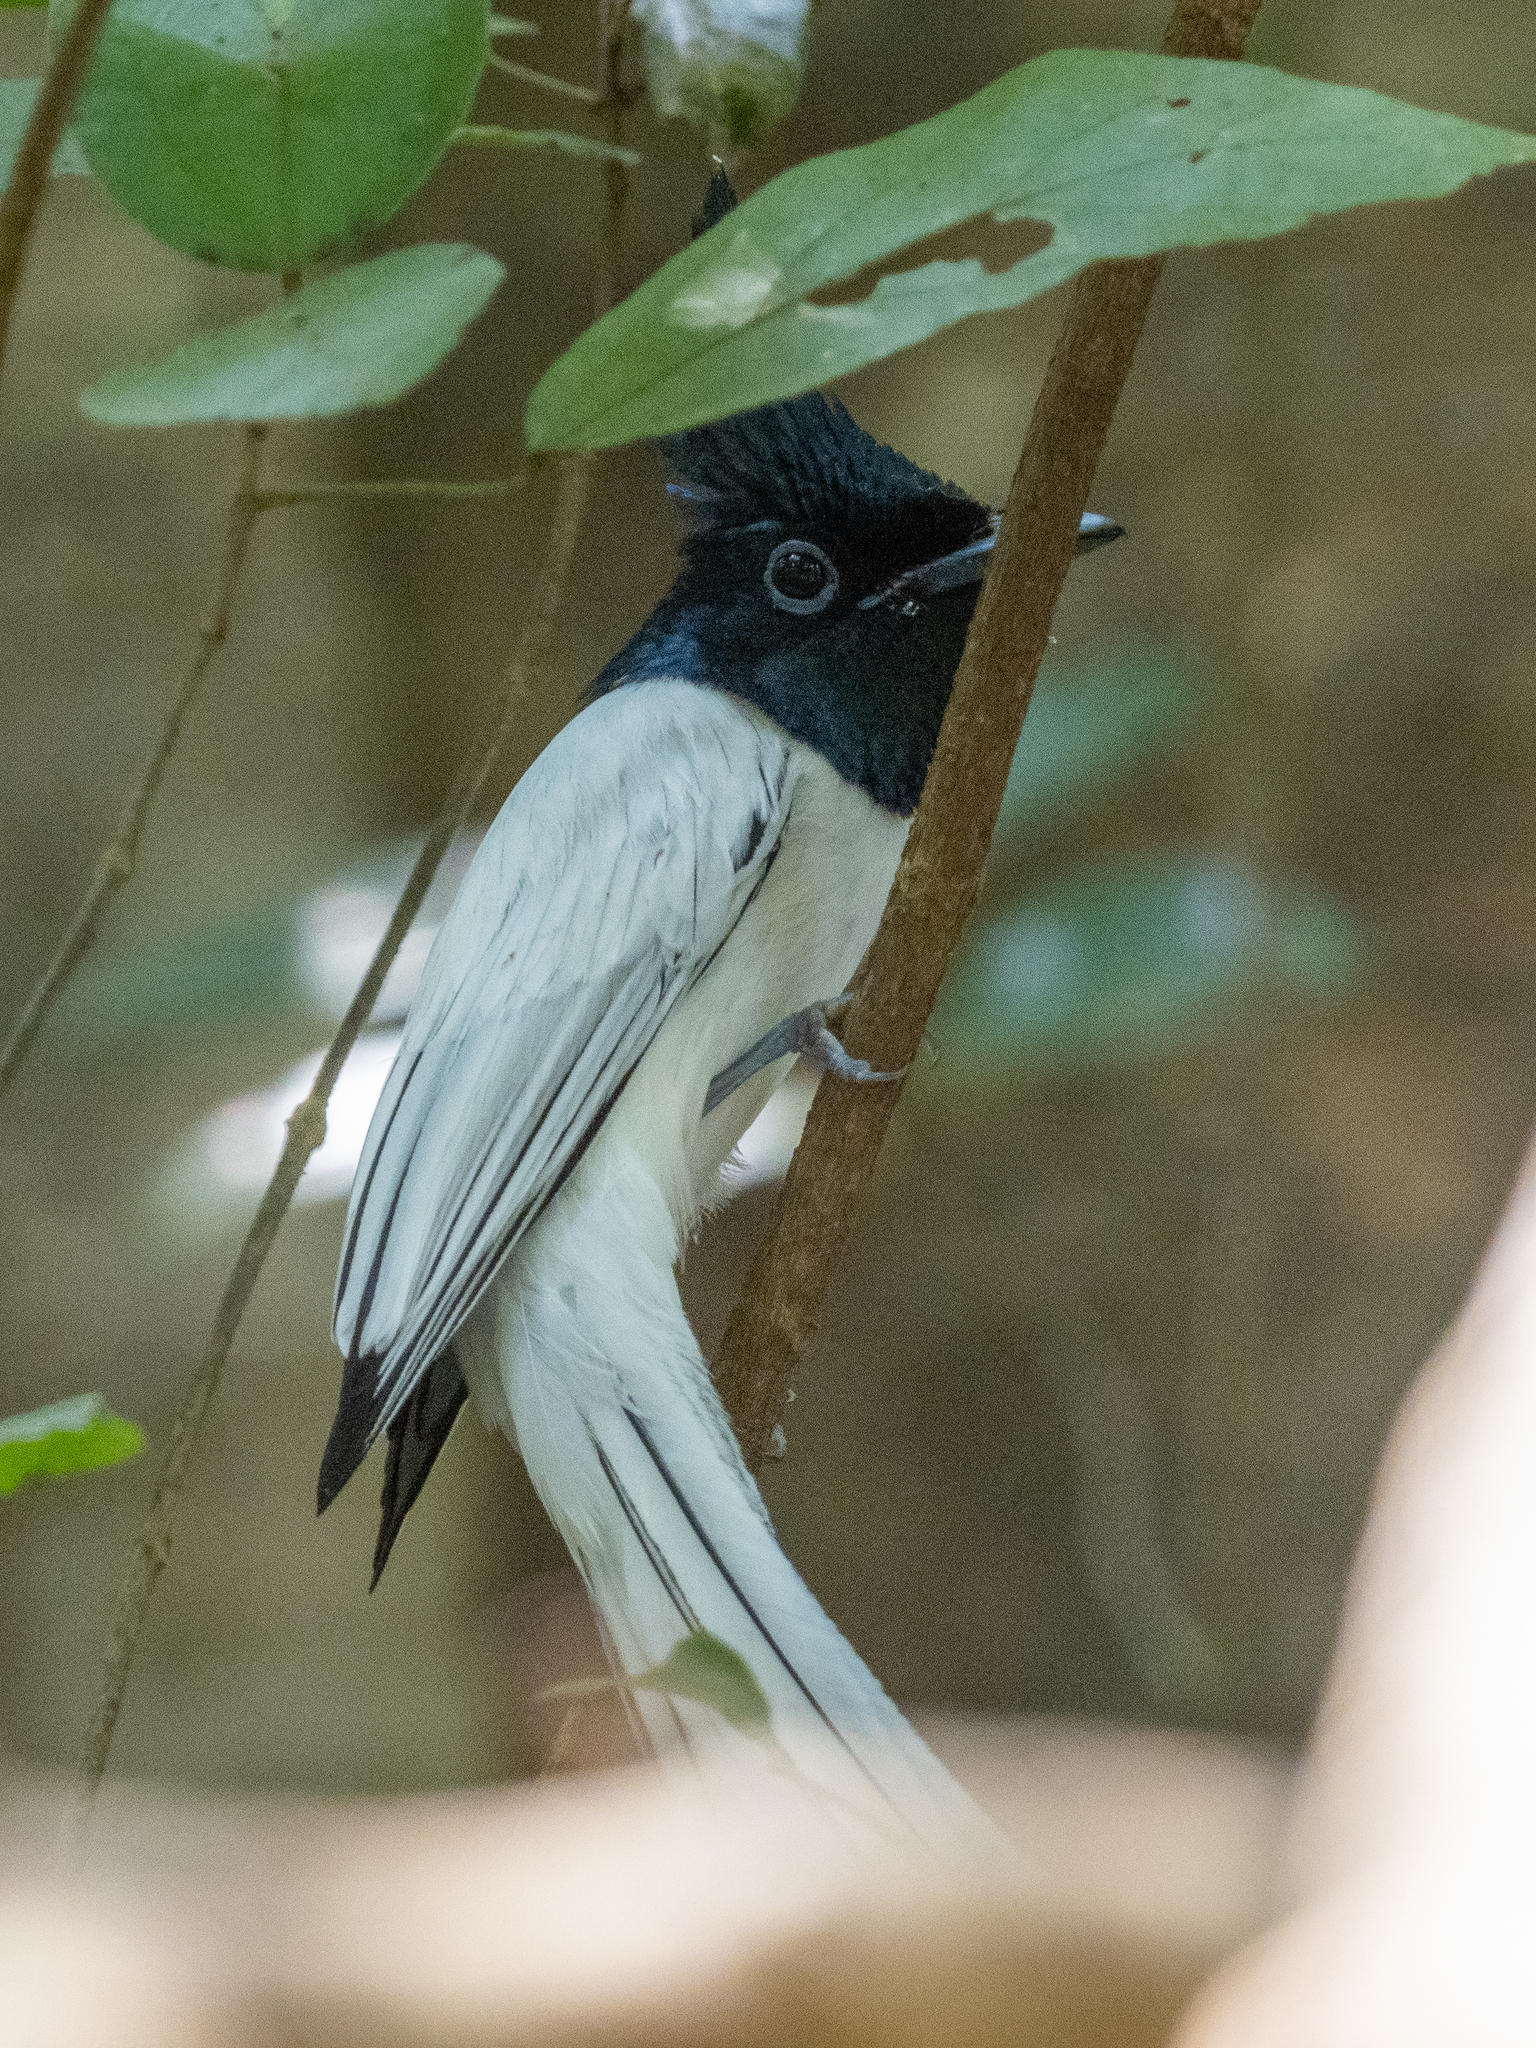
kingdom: Animalia
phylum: Chordata
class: Aves
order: Passeriformes
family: Monarchidae
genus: Terpsiphone
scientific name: Terpsiphone paradisi
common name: Indian paradise flycatcher
